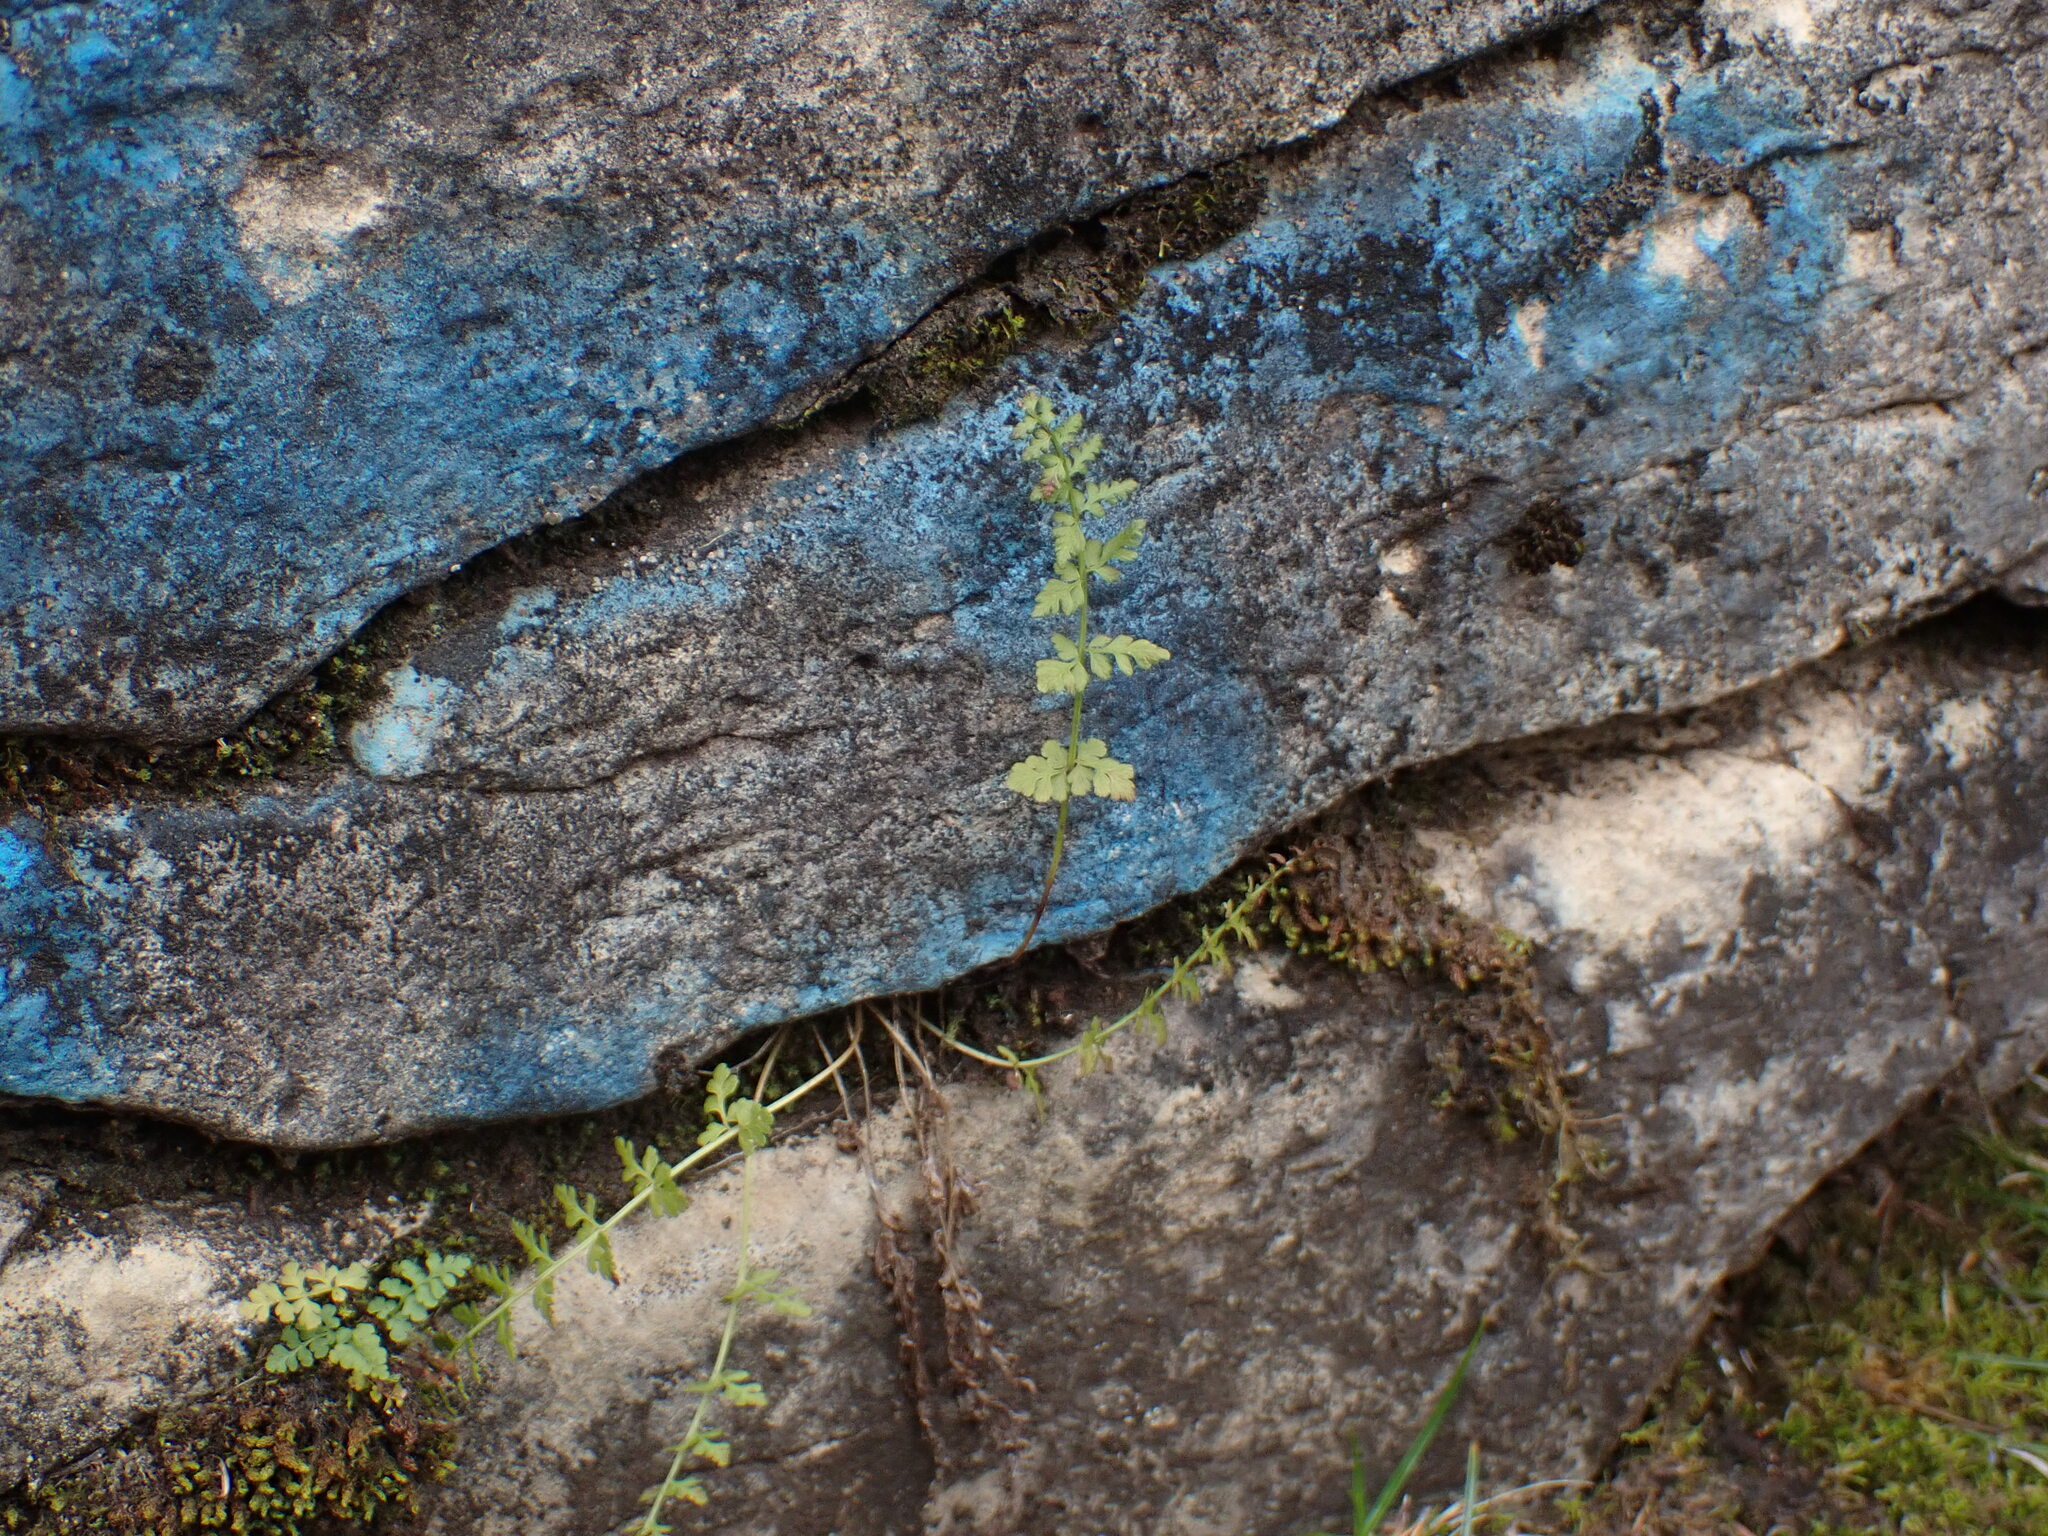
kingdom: Plantae
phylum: Tracheophyta
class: Polypodiopsida
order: Polypodiales
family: Cystopteridaceae
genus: Cystopteris
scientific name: Cystopteris fragilis
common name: Brittle bladder fern
